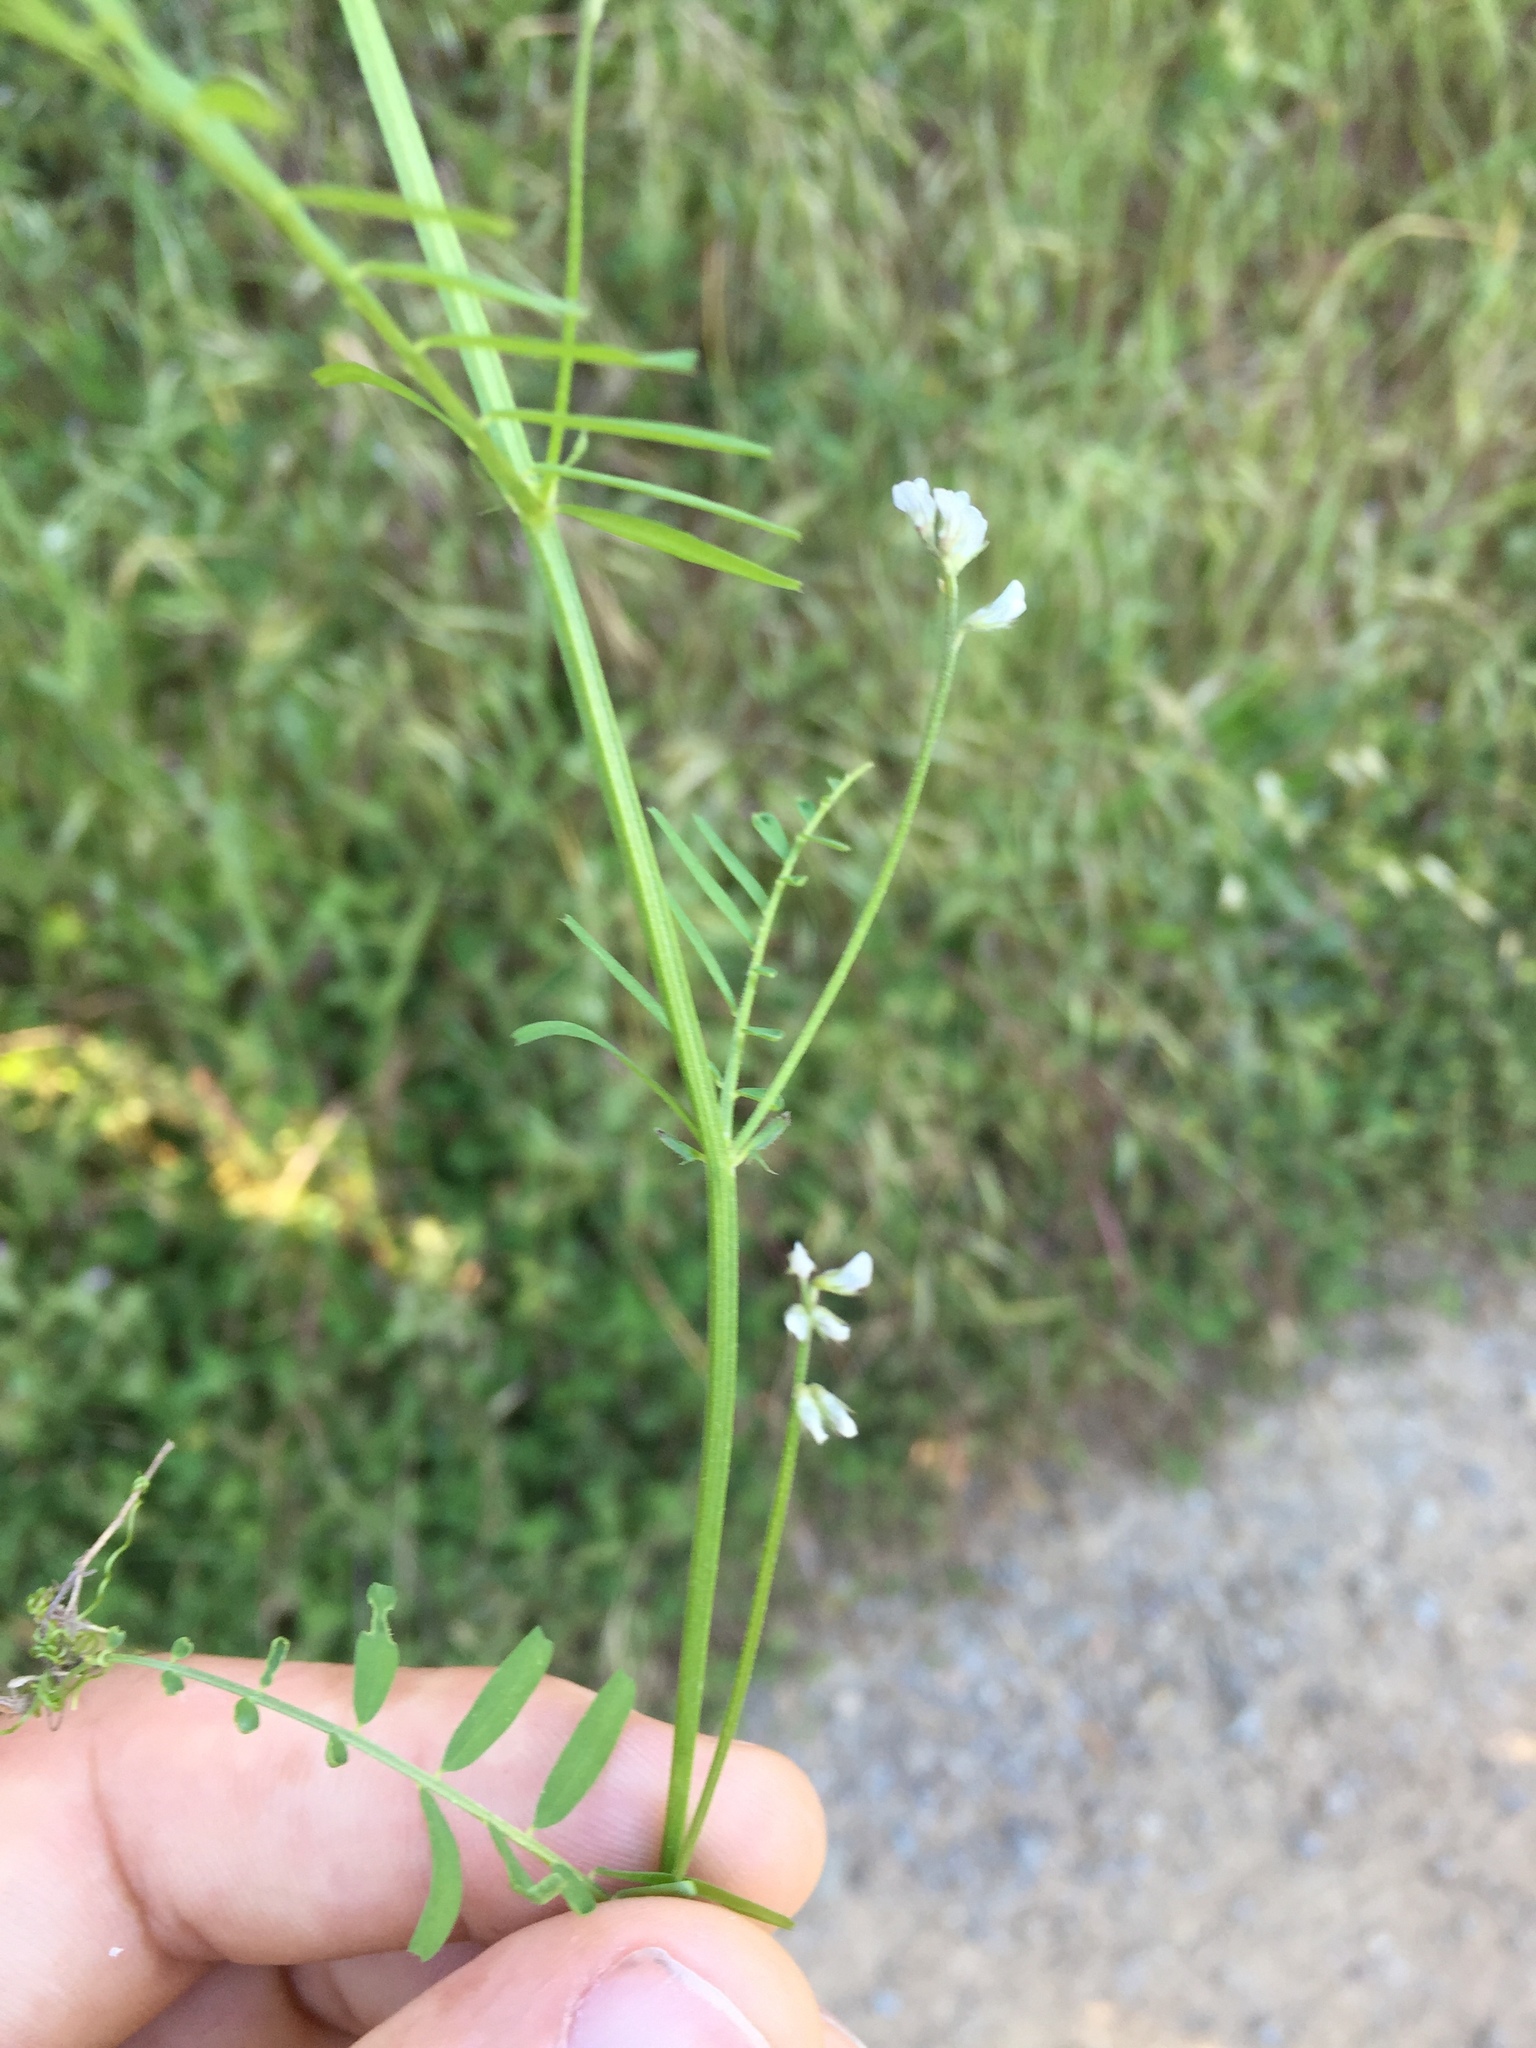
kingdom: Plantae
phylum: Tracheophyta
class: Magnoliopsida
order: Fabales
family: Fabaceae
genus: Vicia
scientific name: Vicia hirsuta
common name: Tiny vetch
